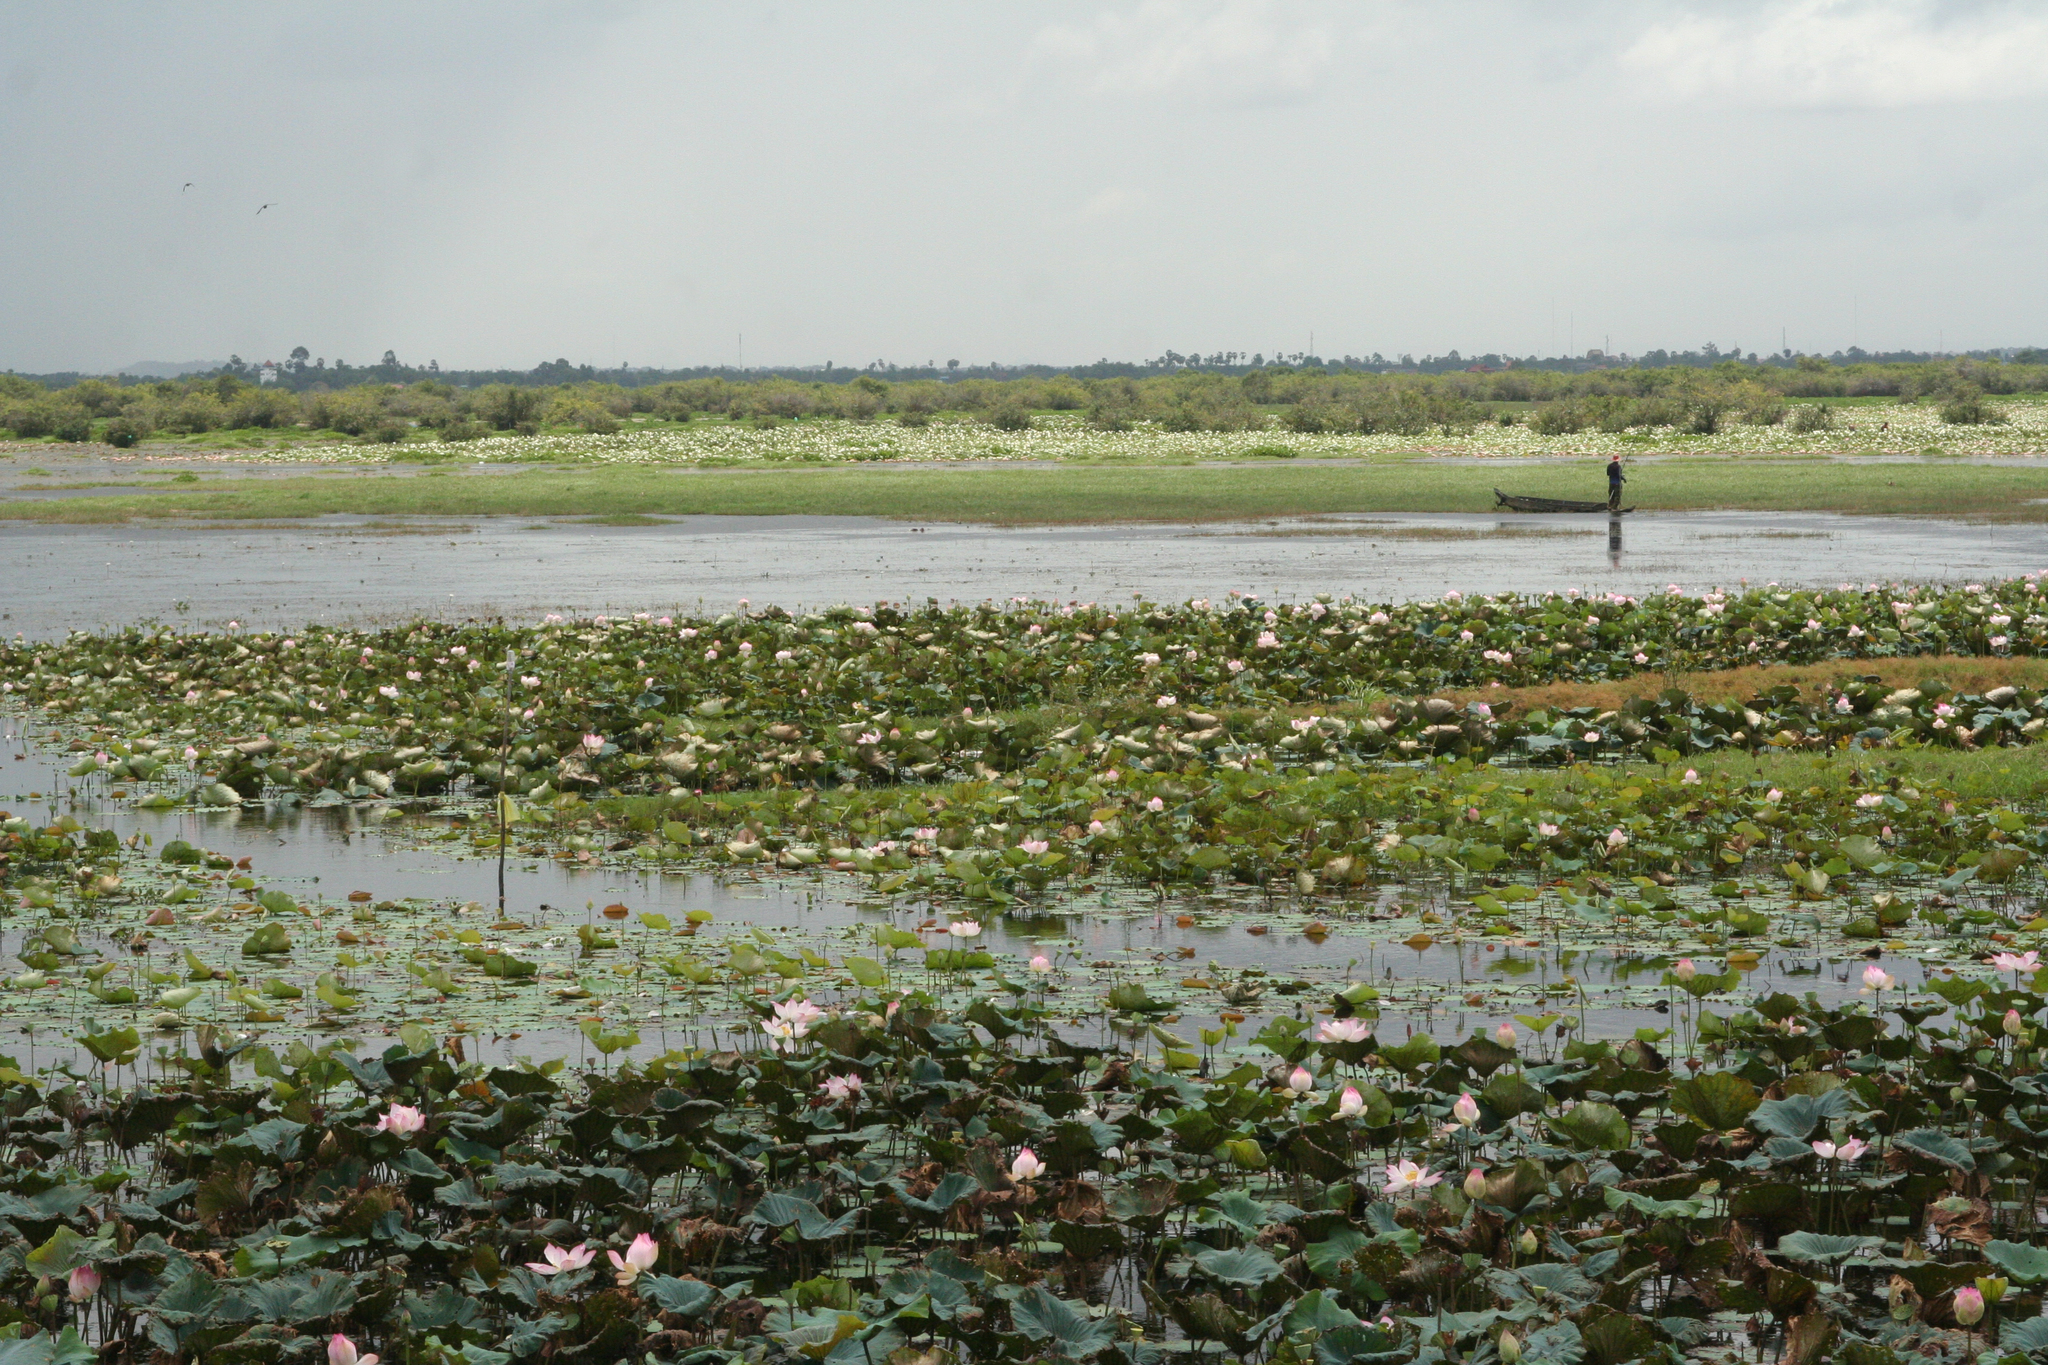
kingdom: Plantae
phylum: Tracheophyta
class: Magnoliopsida
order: Proteales
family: Nelumbonaceae
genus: Nelumbo
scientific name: Nelumbo nucifera
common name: Sacred lotus
